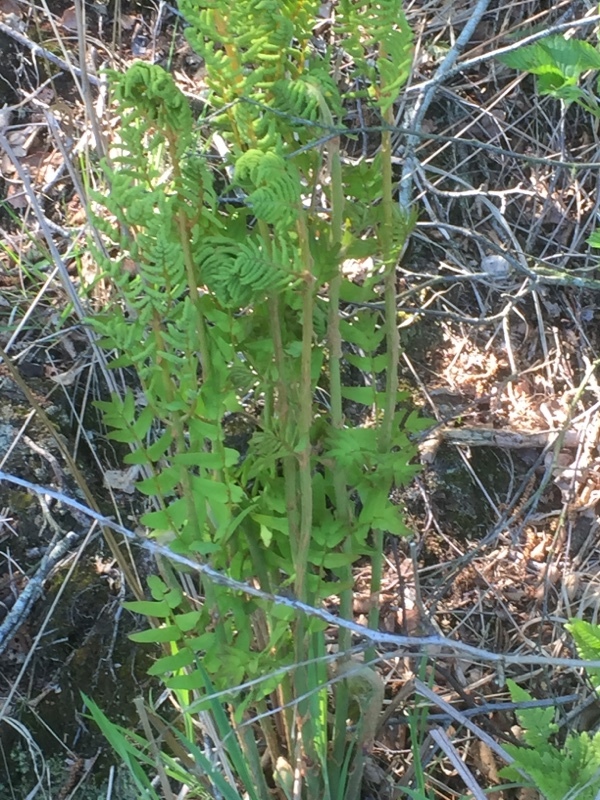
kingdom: Plantae
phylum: Tracheophyta
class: Polypodiopsida
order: Osmundales
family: Osmundaceae
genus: Osmunda
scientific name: Osmunda regalis
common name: Royal fern
